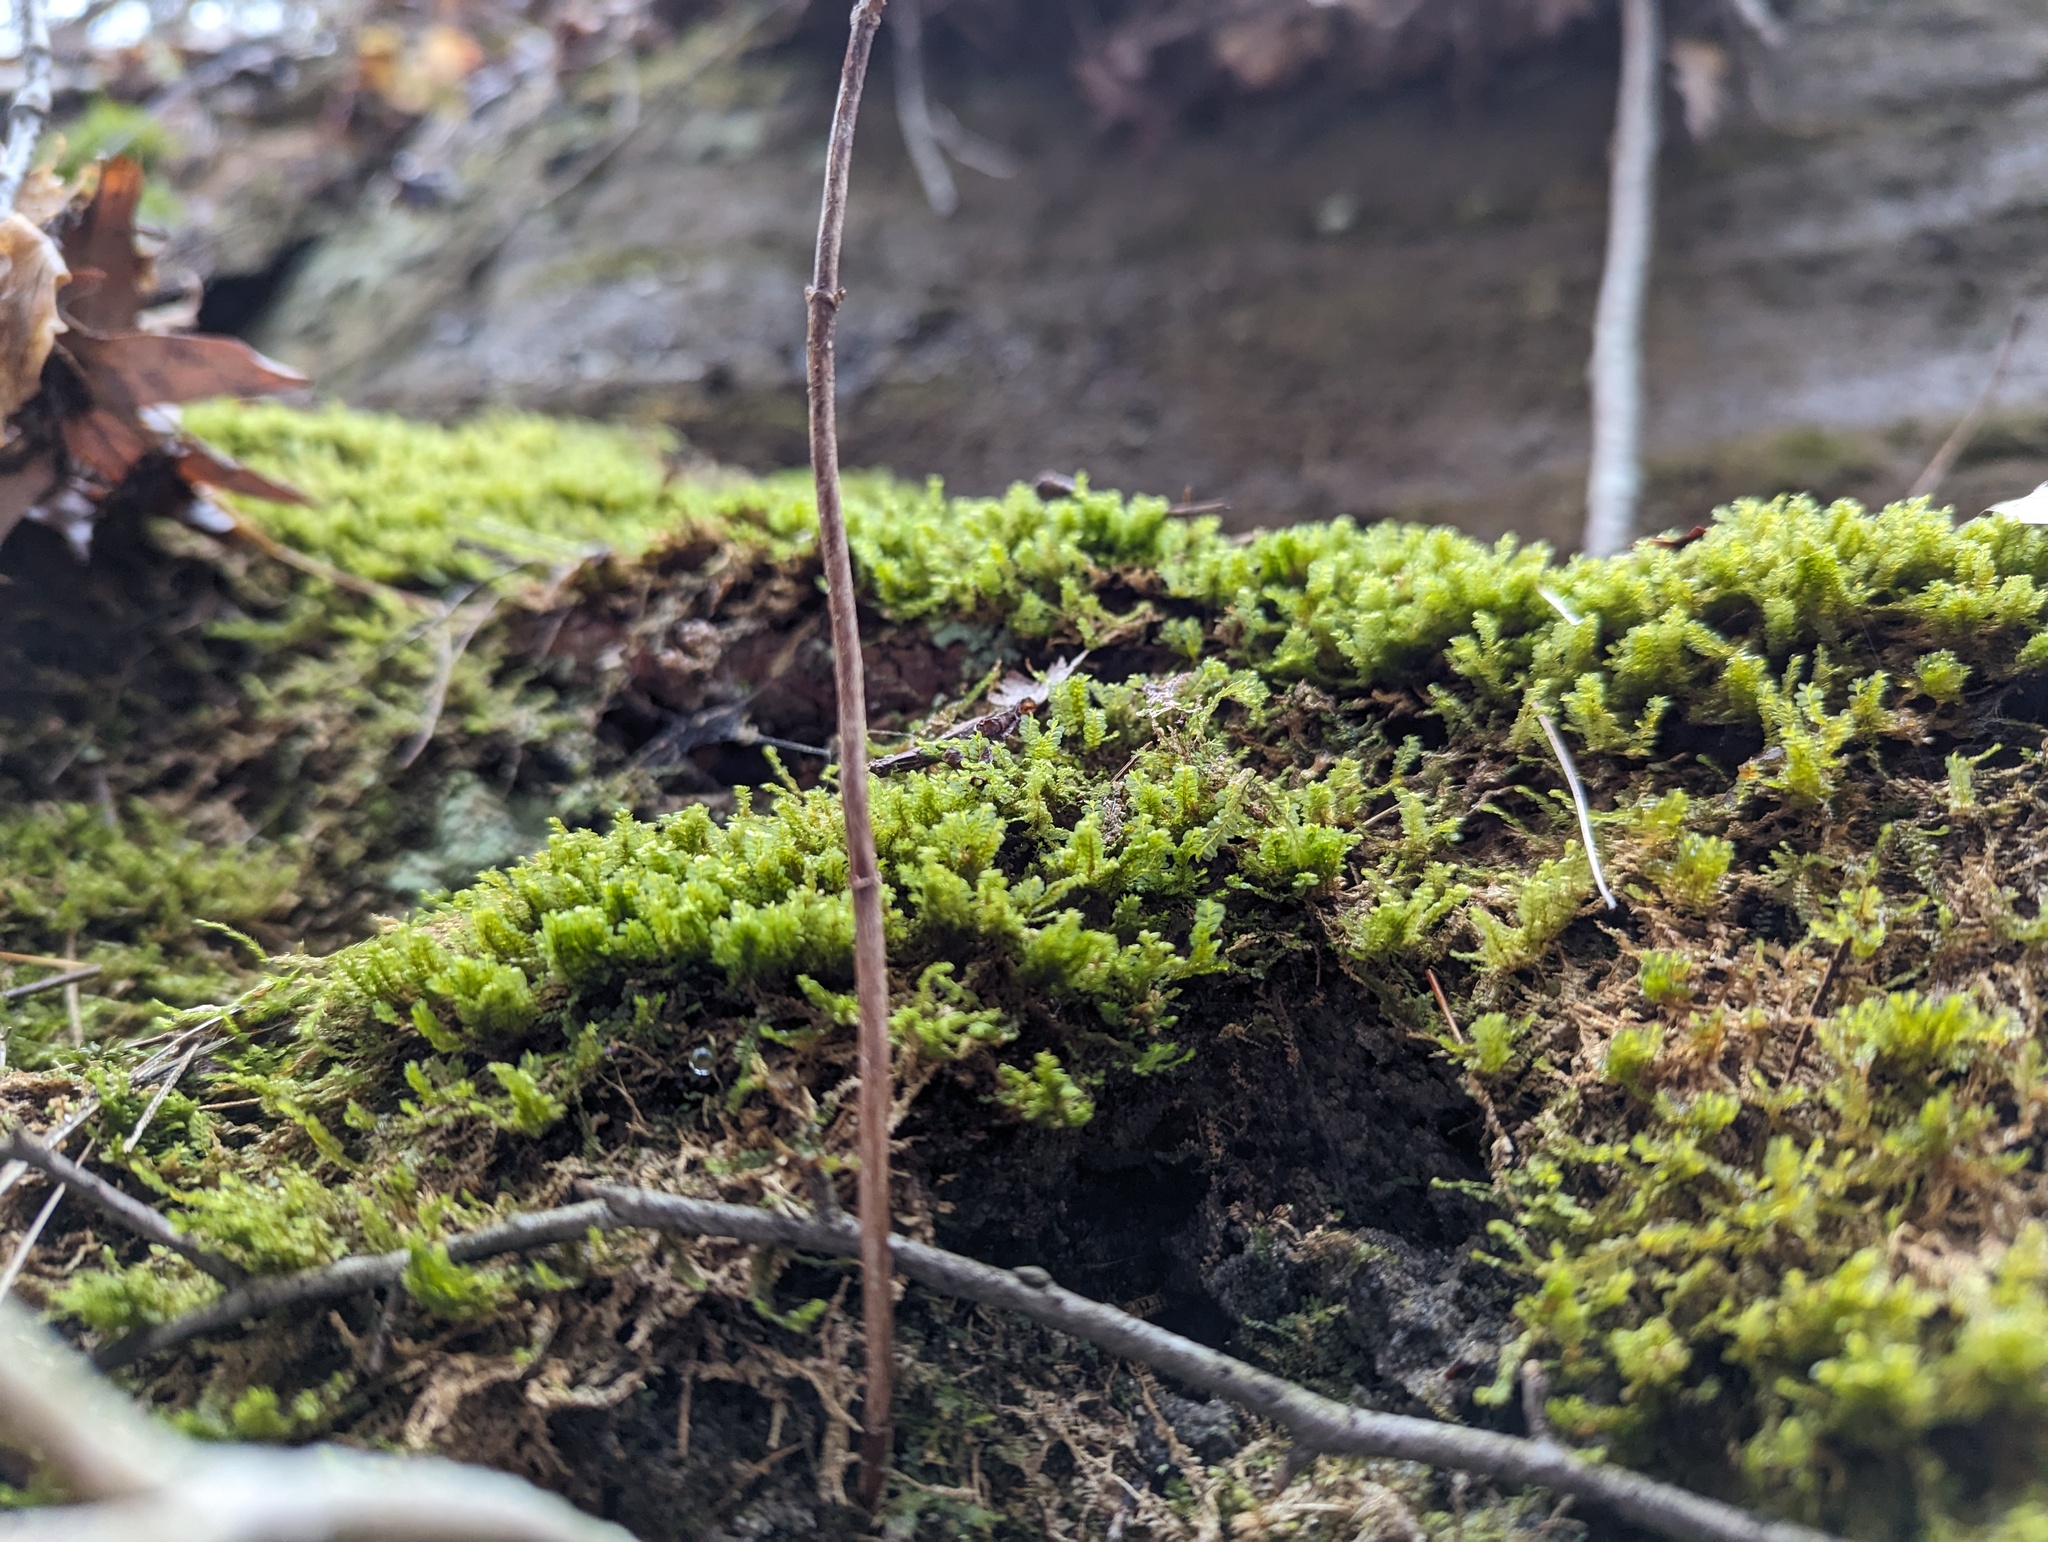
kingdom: Plantae
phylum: Marchantiophyta
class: Jungermanniopsida
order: Jungermanniales
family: Plagiochilaceae
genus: Plagiochila
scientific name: Plagiochila porelloides
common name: Lesser featherwort
